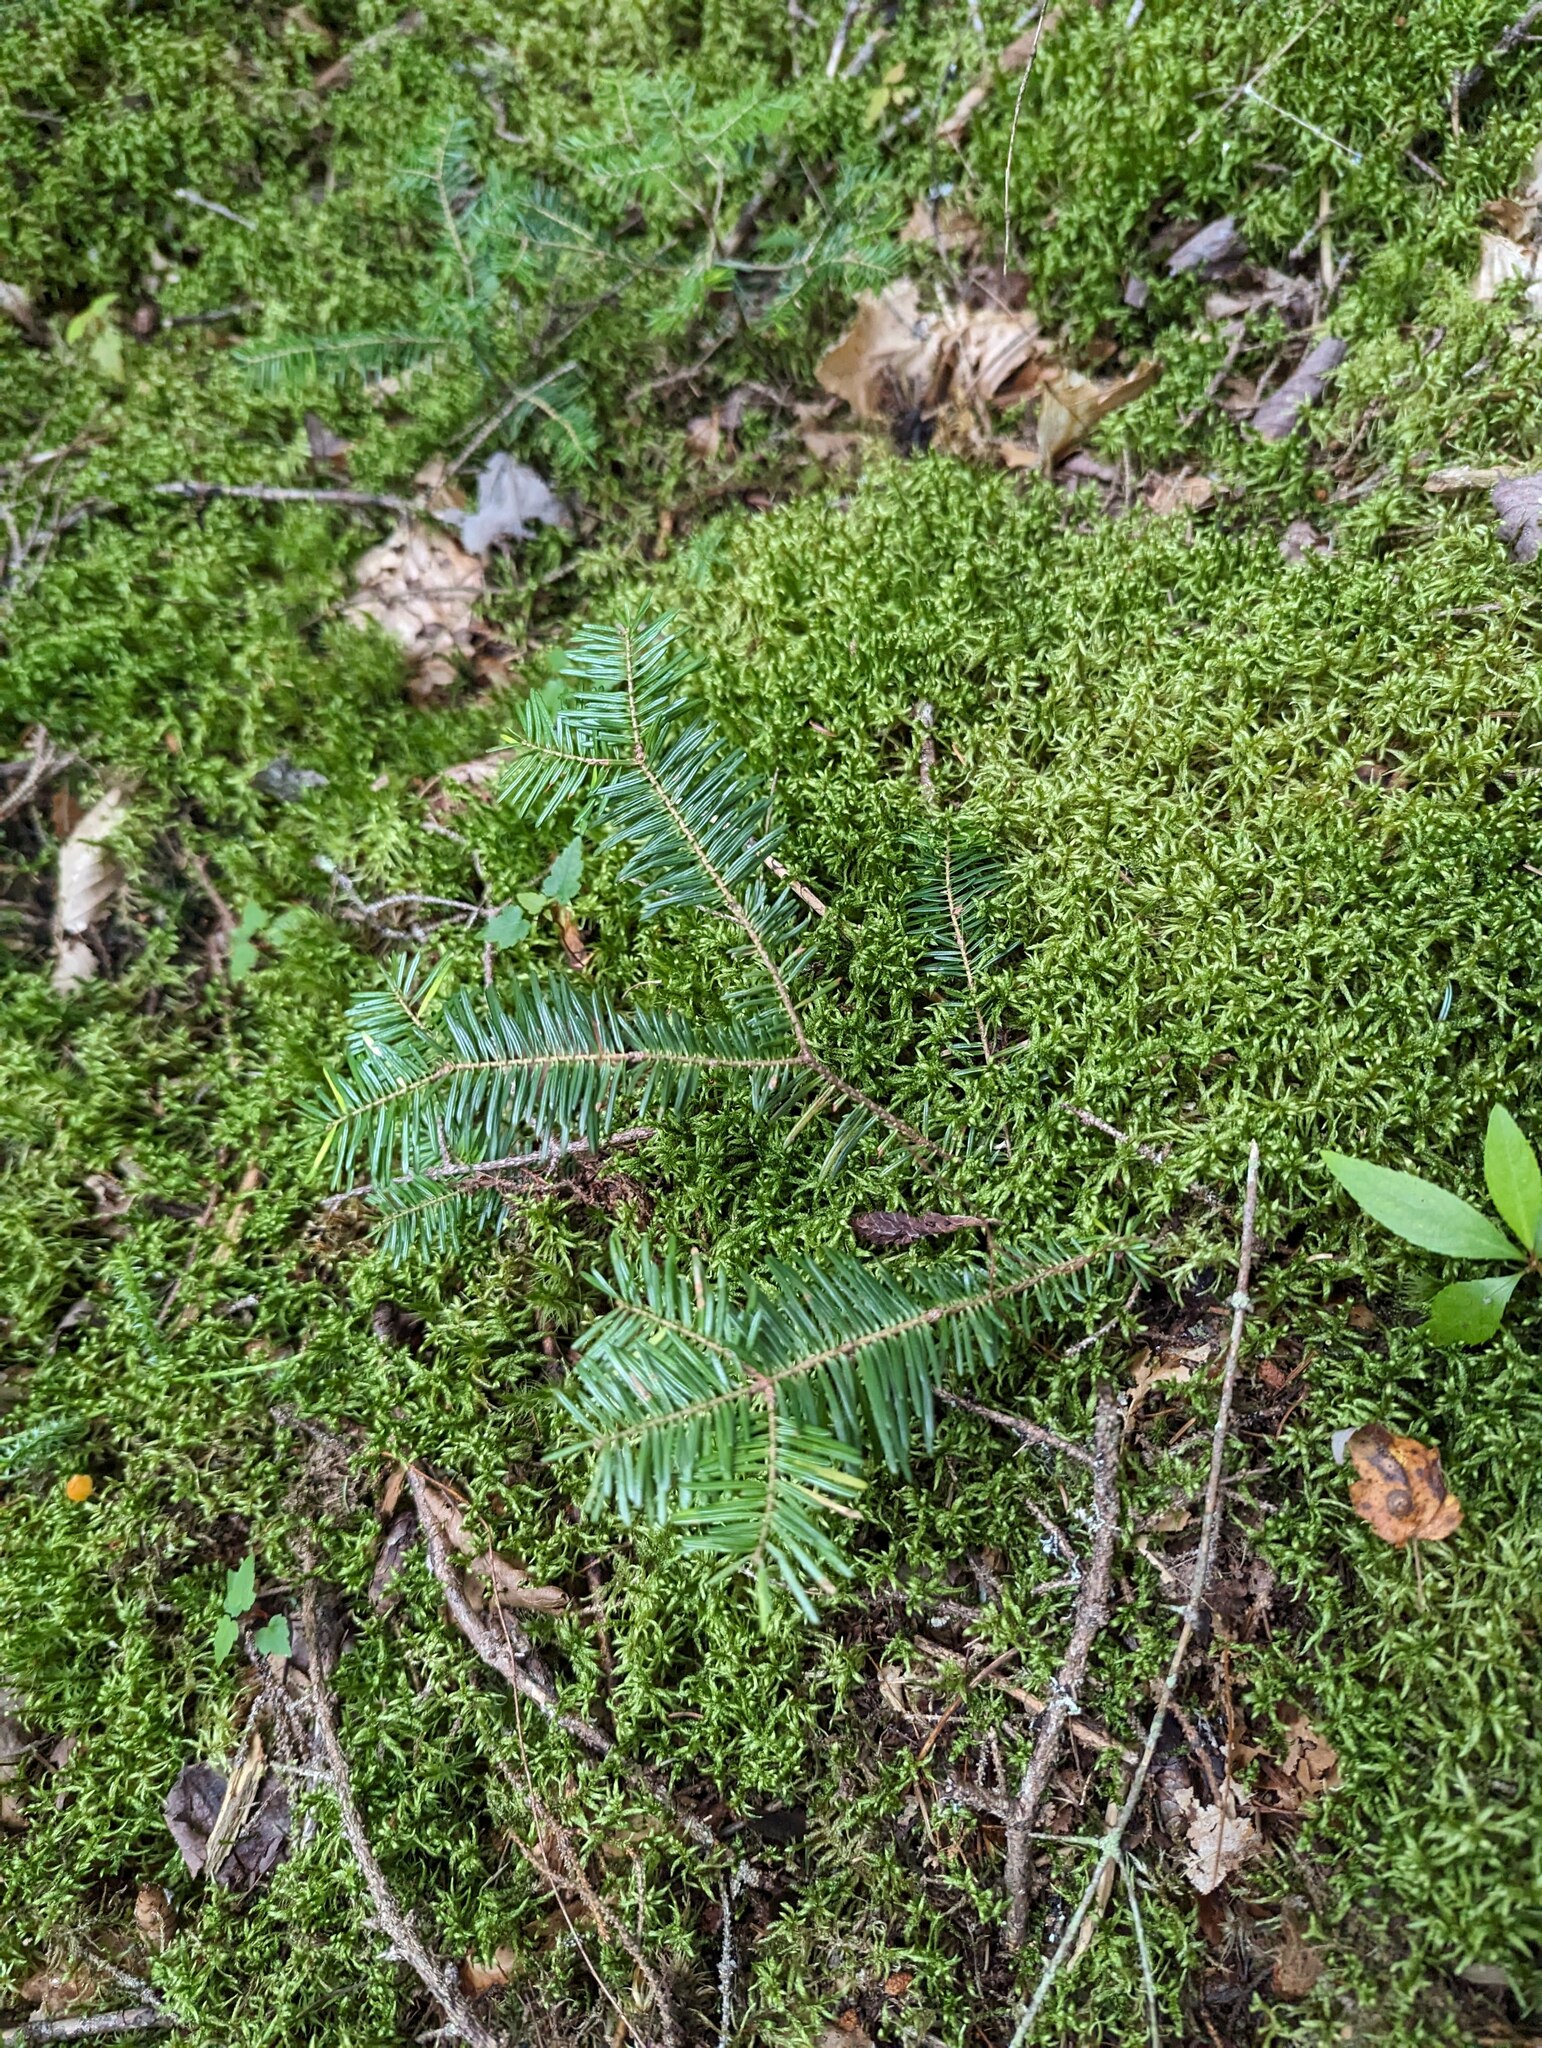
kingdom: Plantae
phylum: Tracheophyta
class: Pinopsida
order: Pinales
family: Pinaceae
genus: Abies
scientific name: Abies balsamea
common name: Balsam fir
